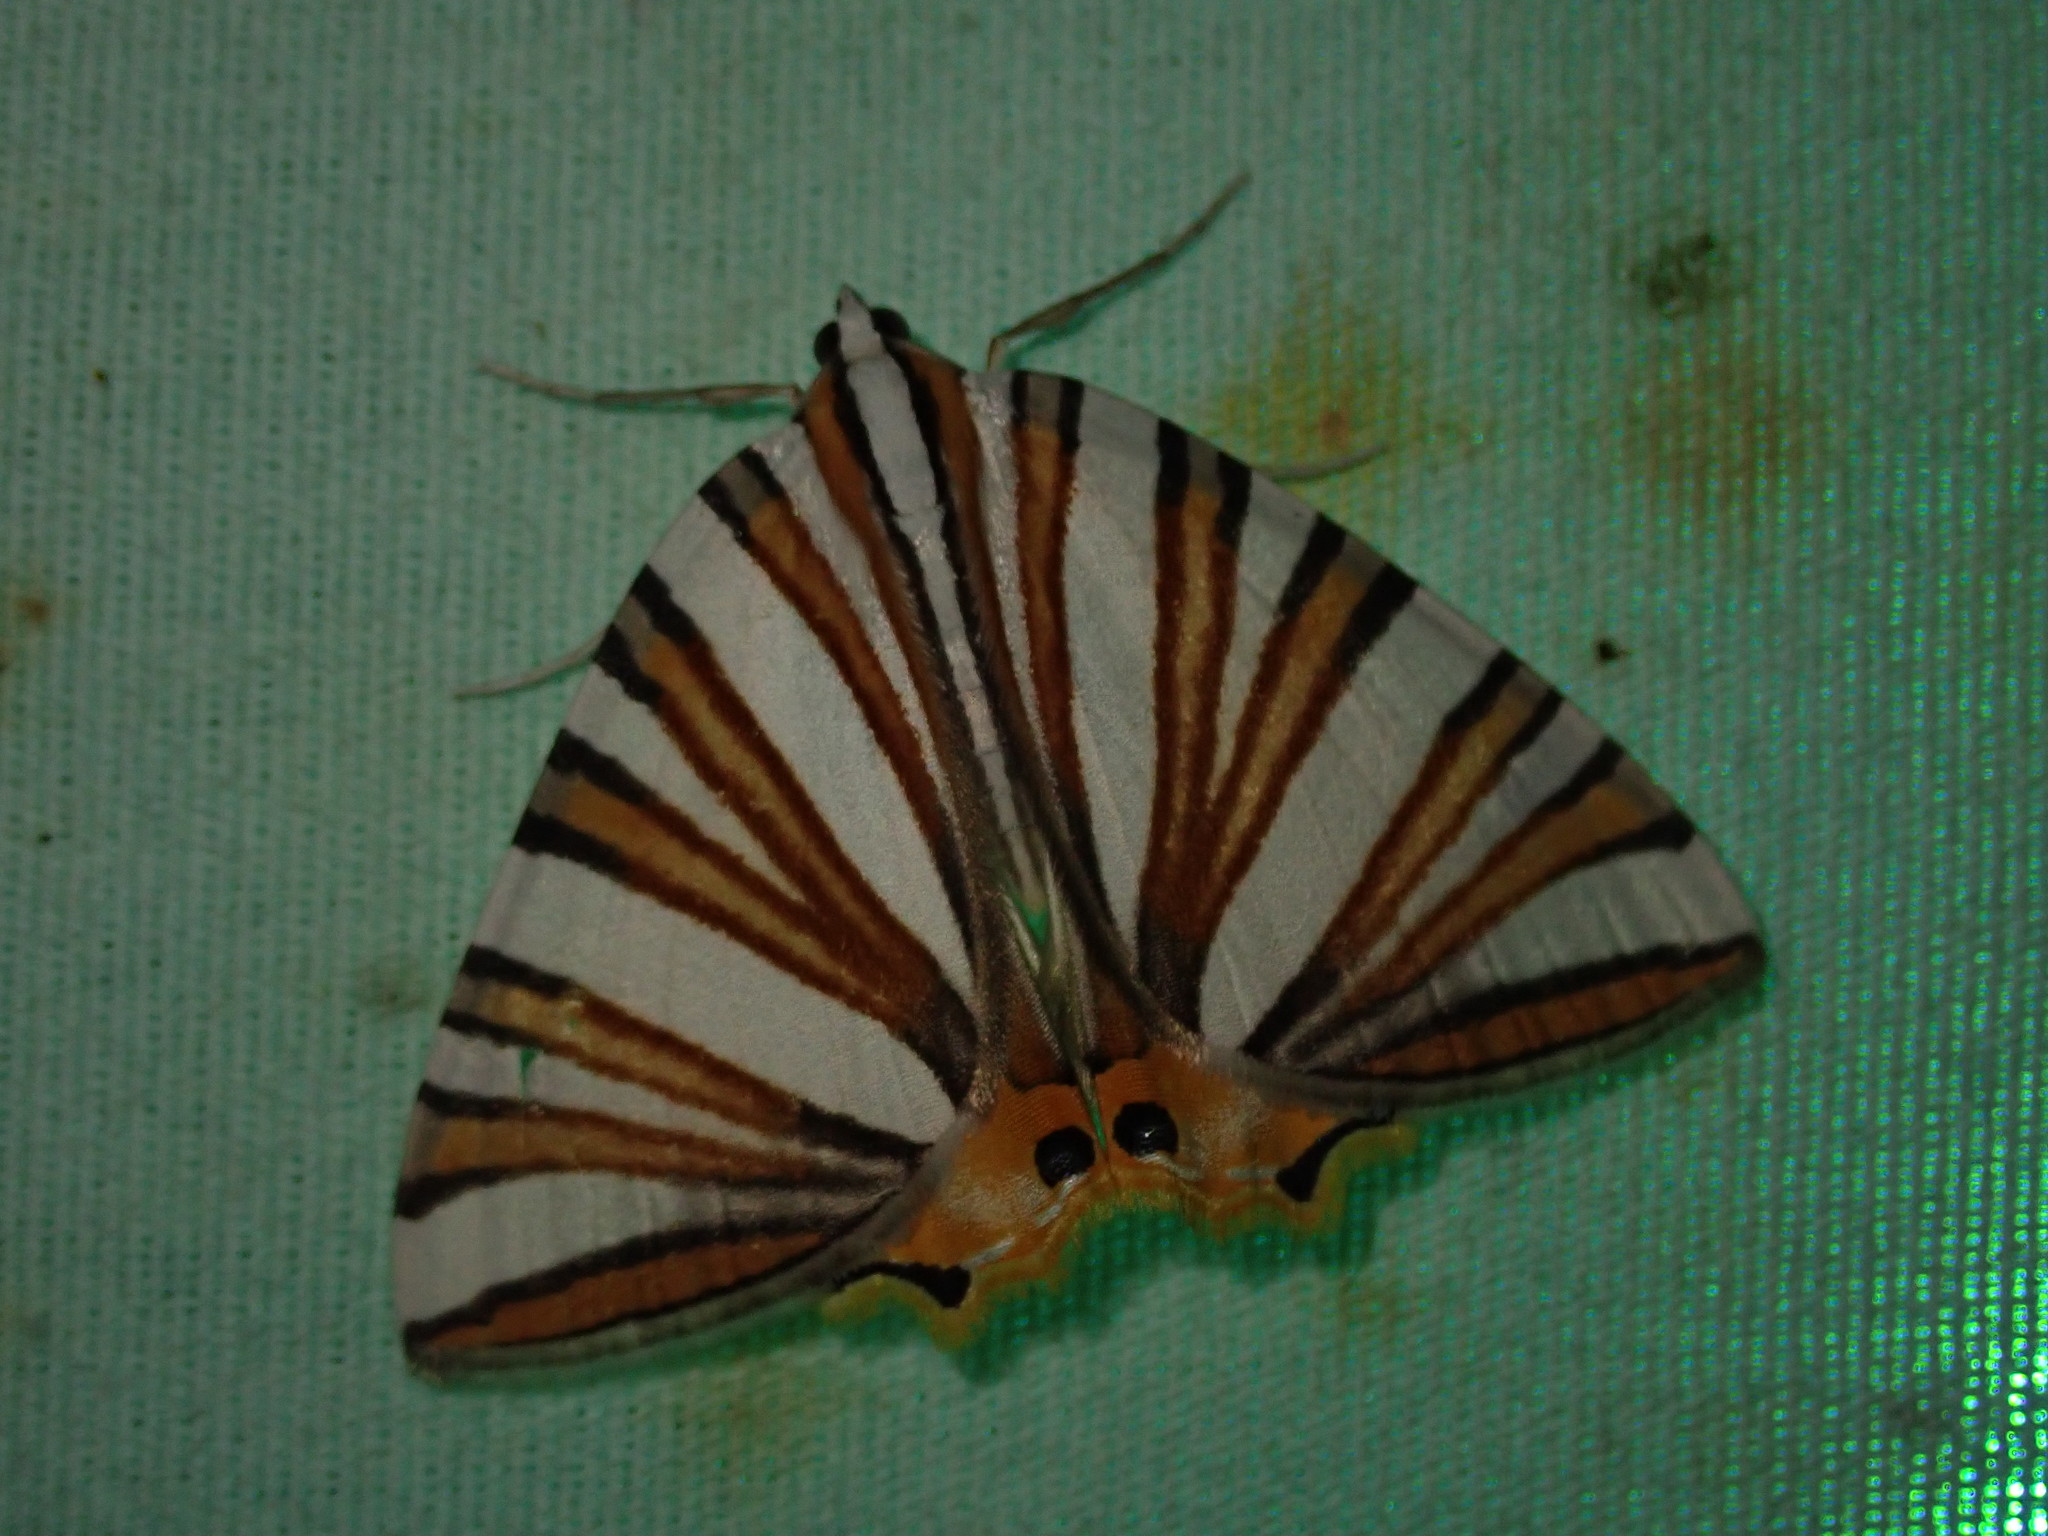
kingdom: Animalia
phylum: Arthropoda
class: Insecta
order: Lepidoptera
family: Geometridae
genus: Pityeja
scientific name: Pityeja histrionaria
